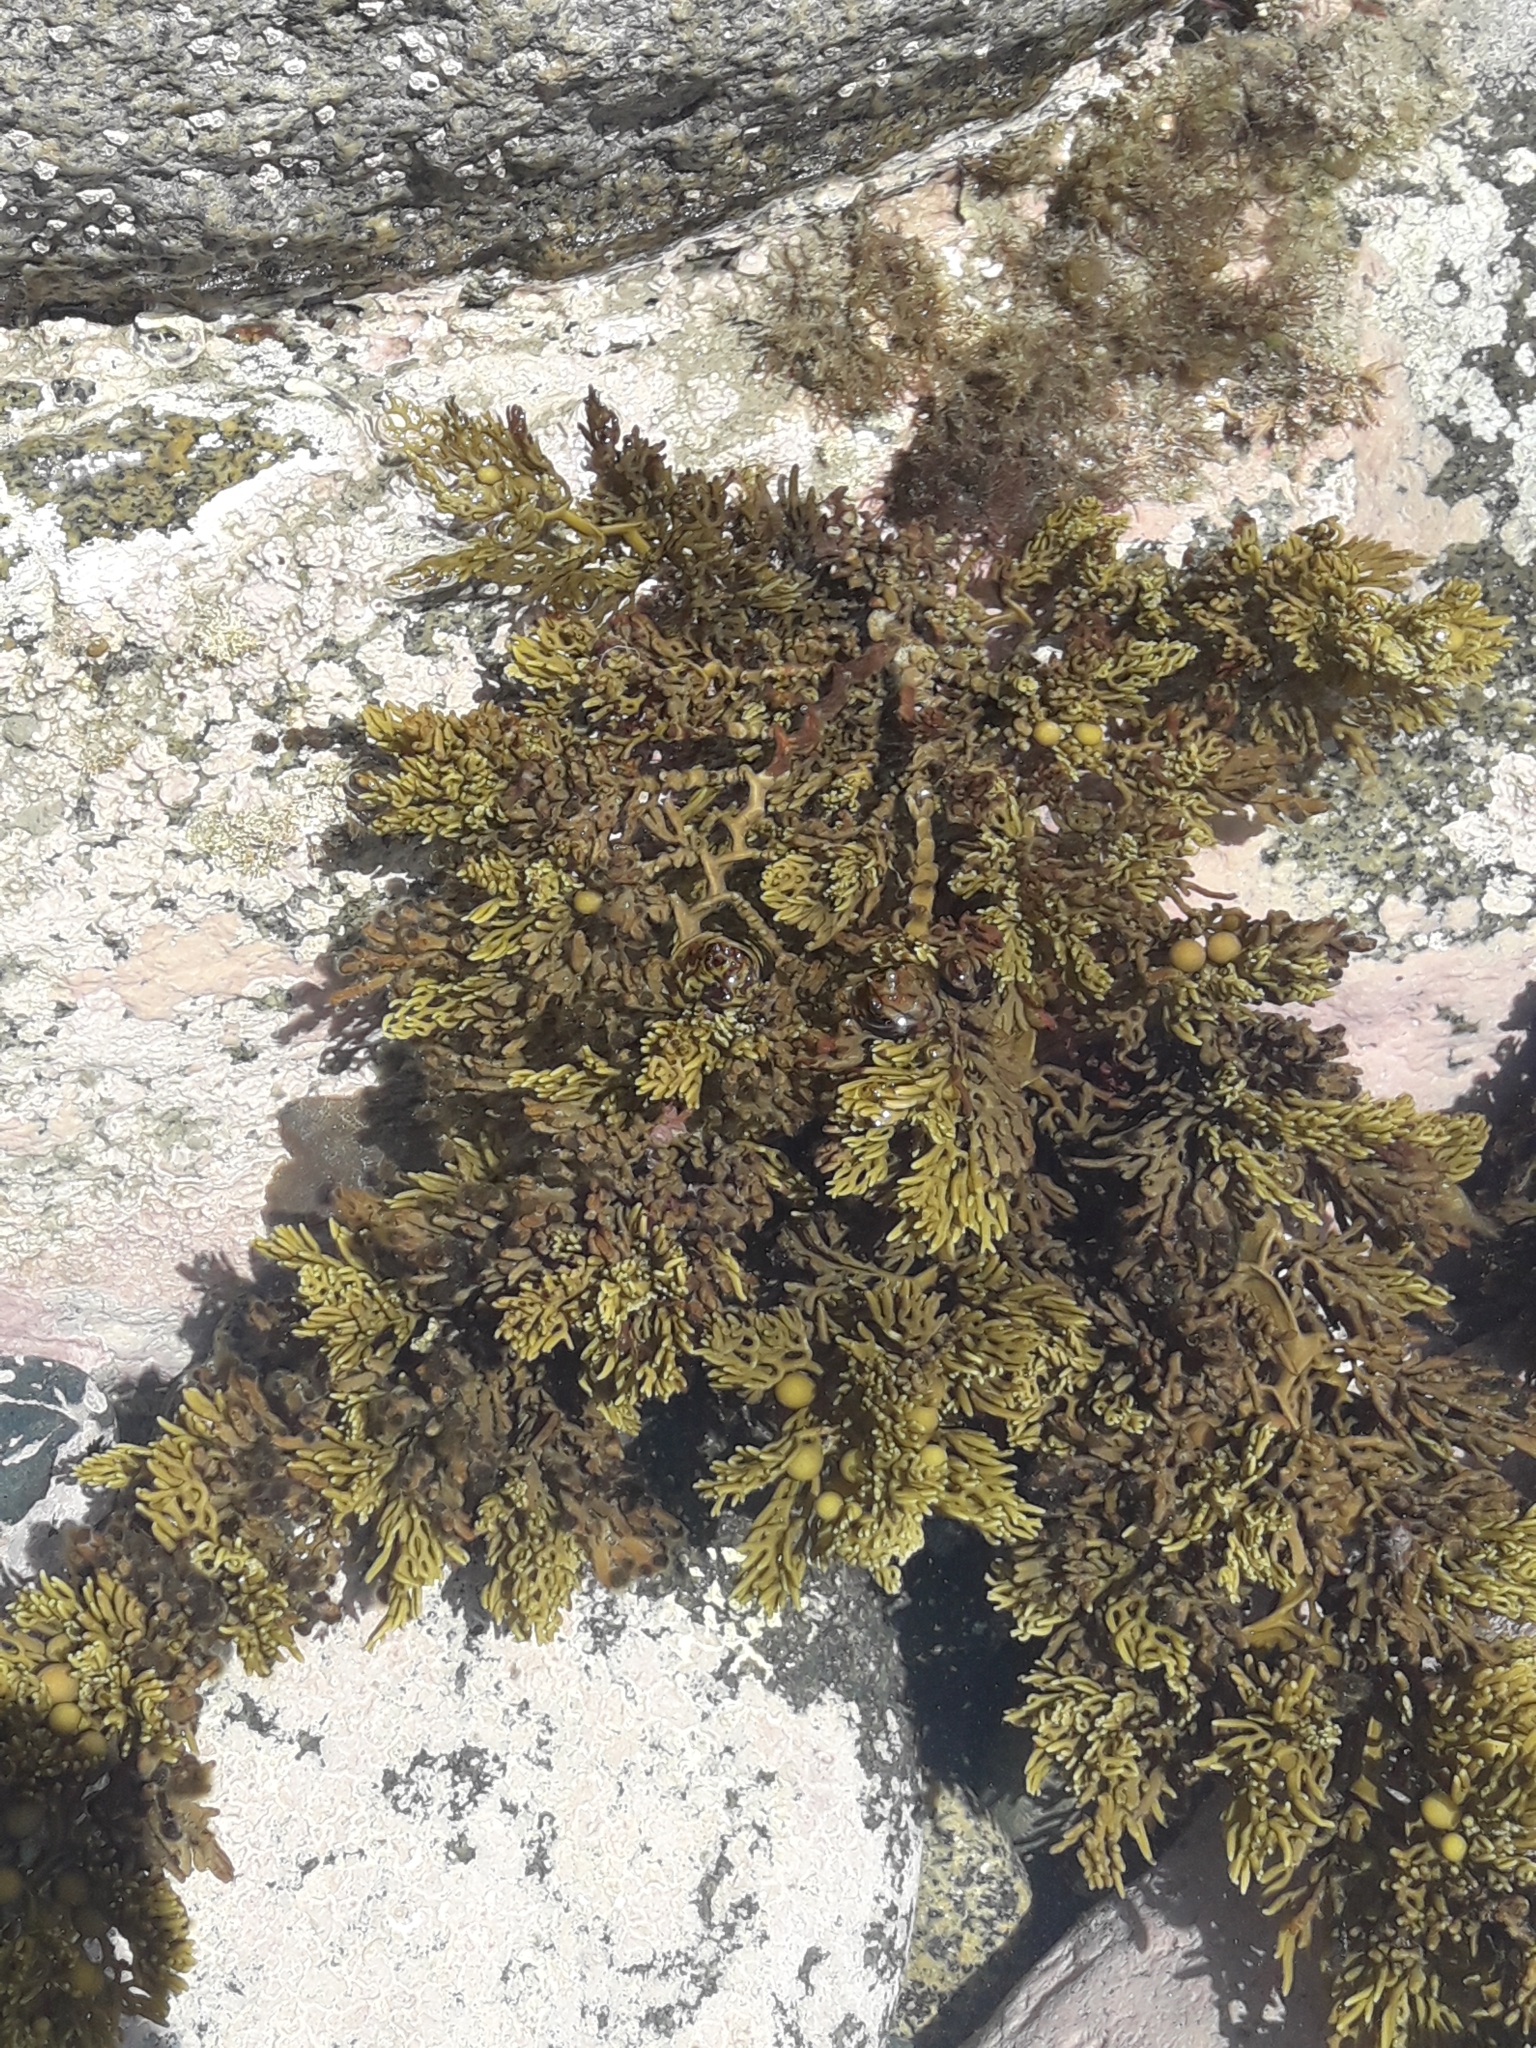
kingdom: Chromista
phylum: Ochrophyta
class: Phaeophyceae
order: Fucales
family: Sargassaceae
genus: Cystophora
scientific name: Cystophora scalaris
